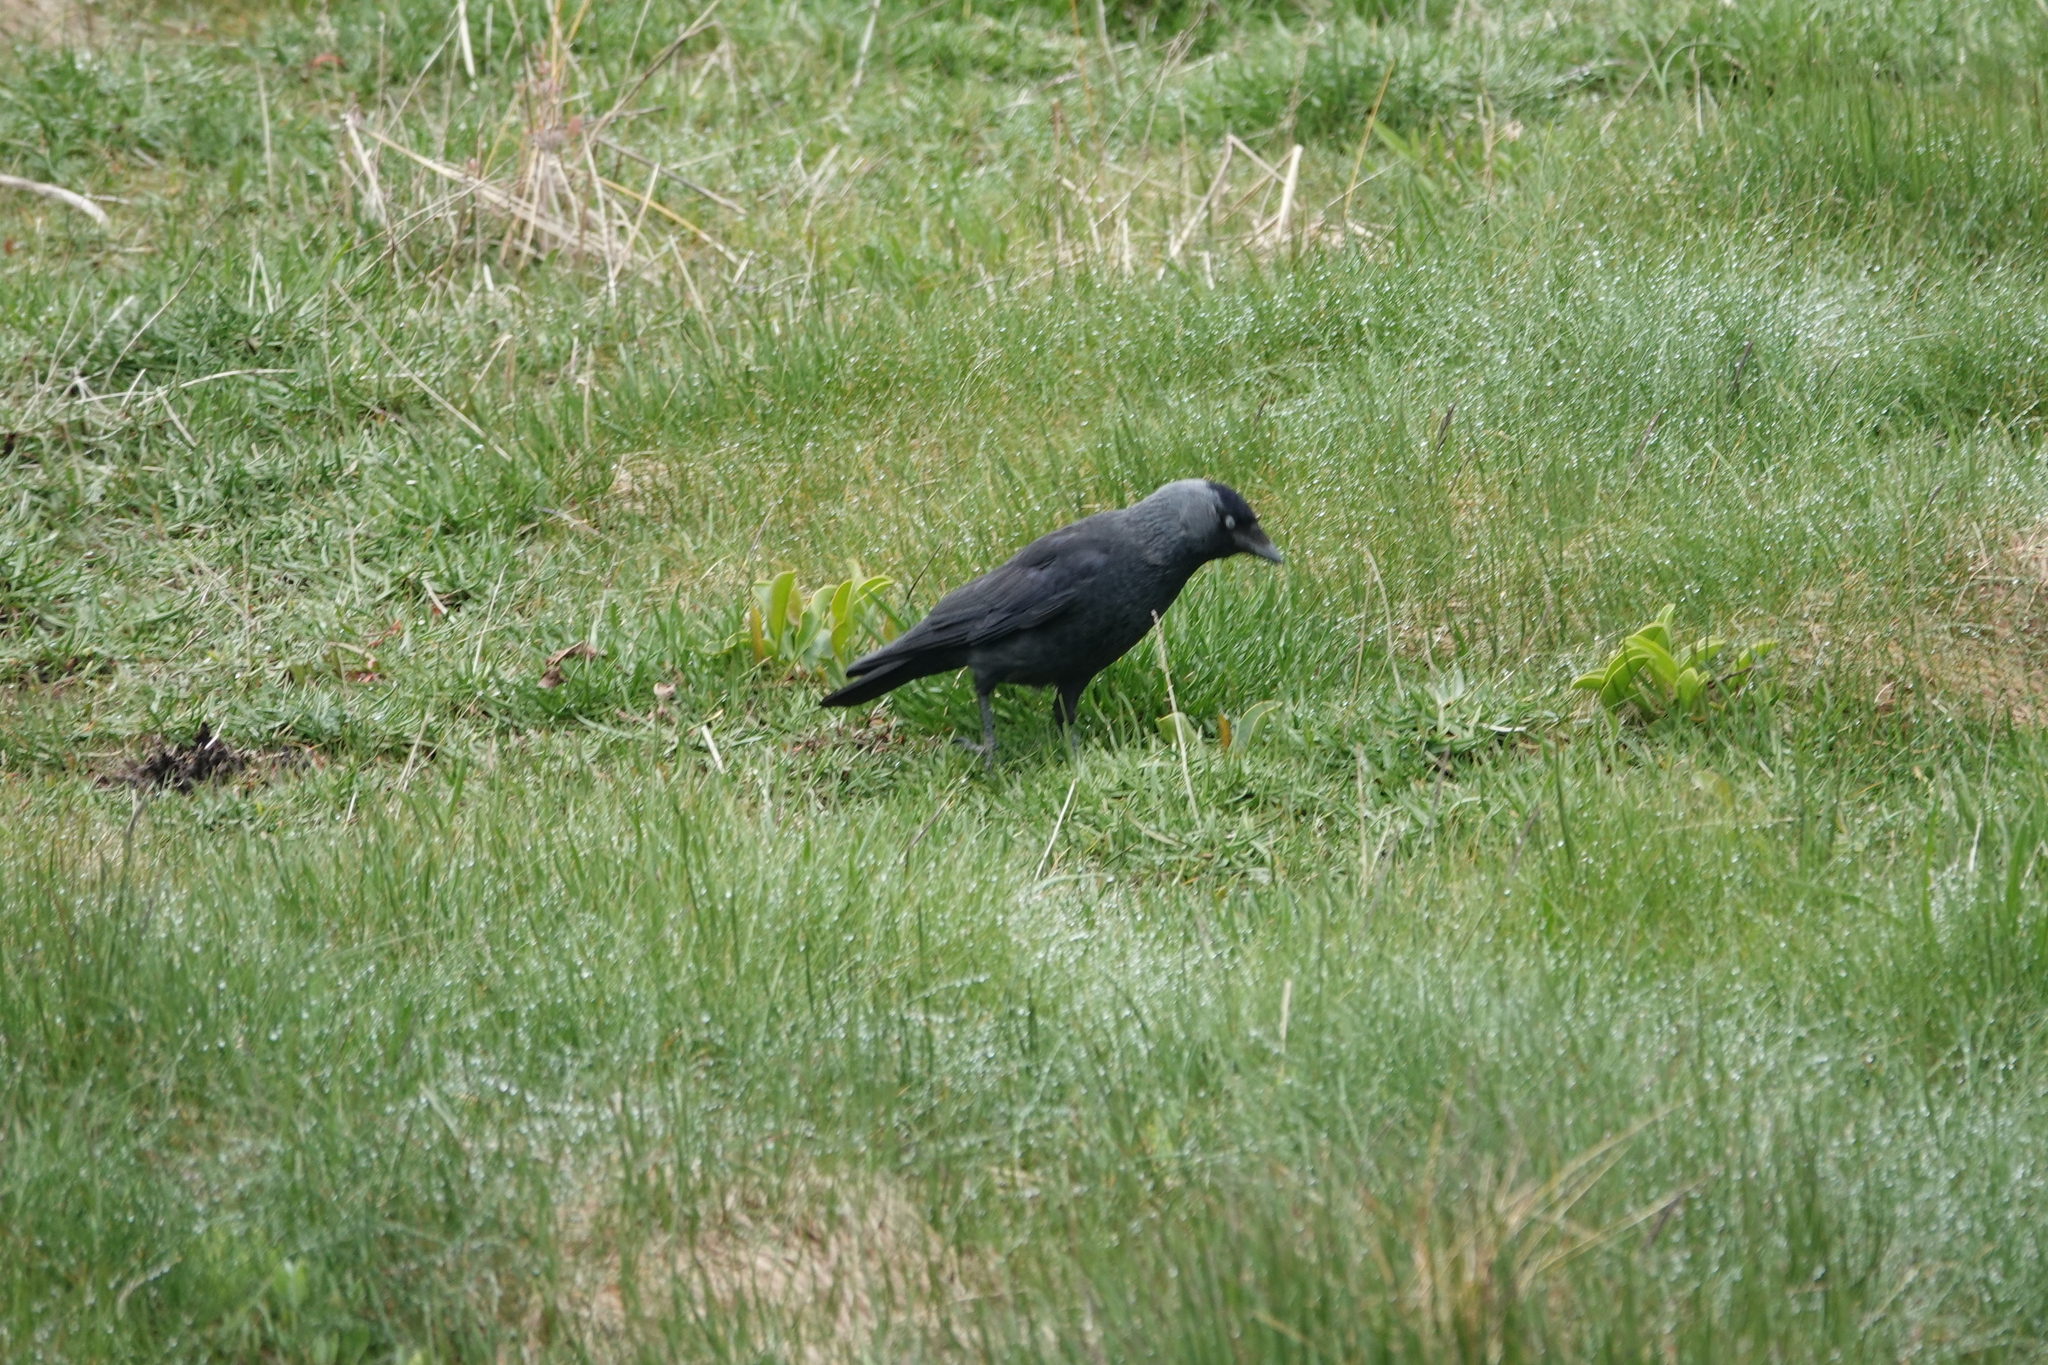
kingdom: Animalia
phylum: Chordata
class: Aves
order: Passeriformes
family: Corvidae
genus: Coloeus
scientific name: Coloeus monedula
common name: Western jackdaw
